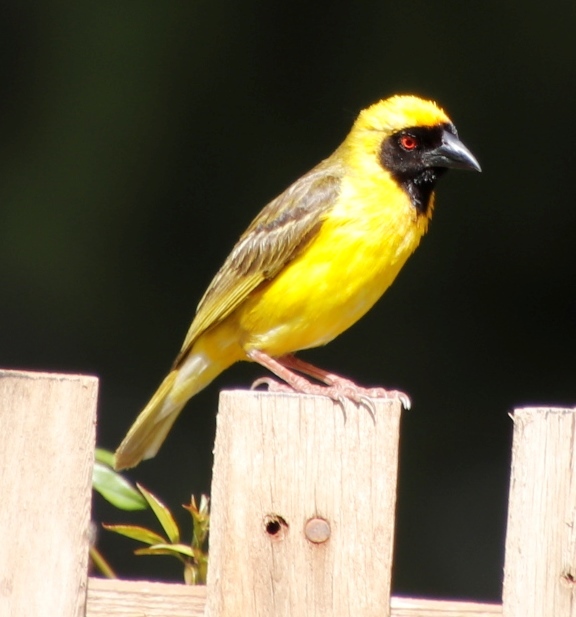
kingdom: Animalia
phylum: Chordata
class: Aves
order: Passeriformes
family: Ploceidae
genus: Ploceus
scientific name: Ploceus velatus
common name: Southern masked weaver
